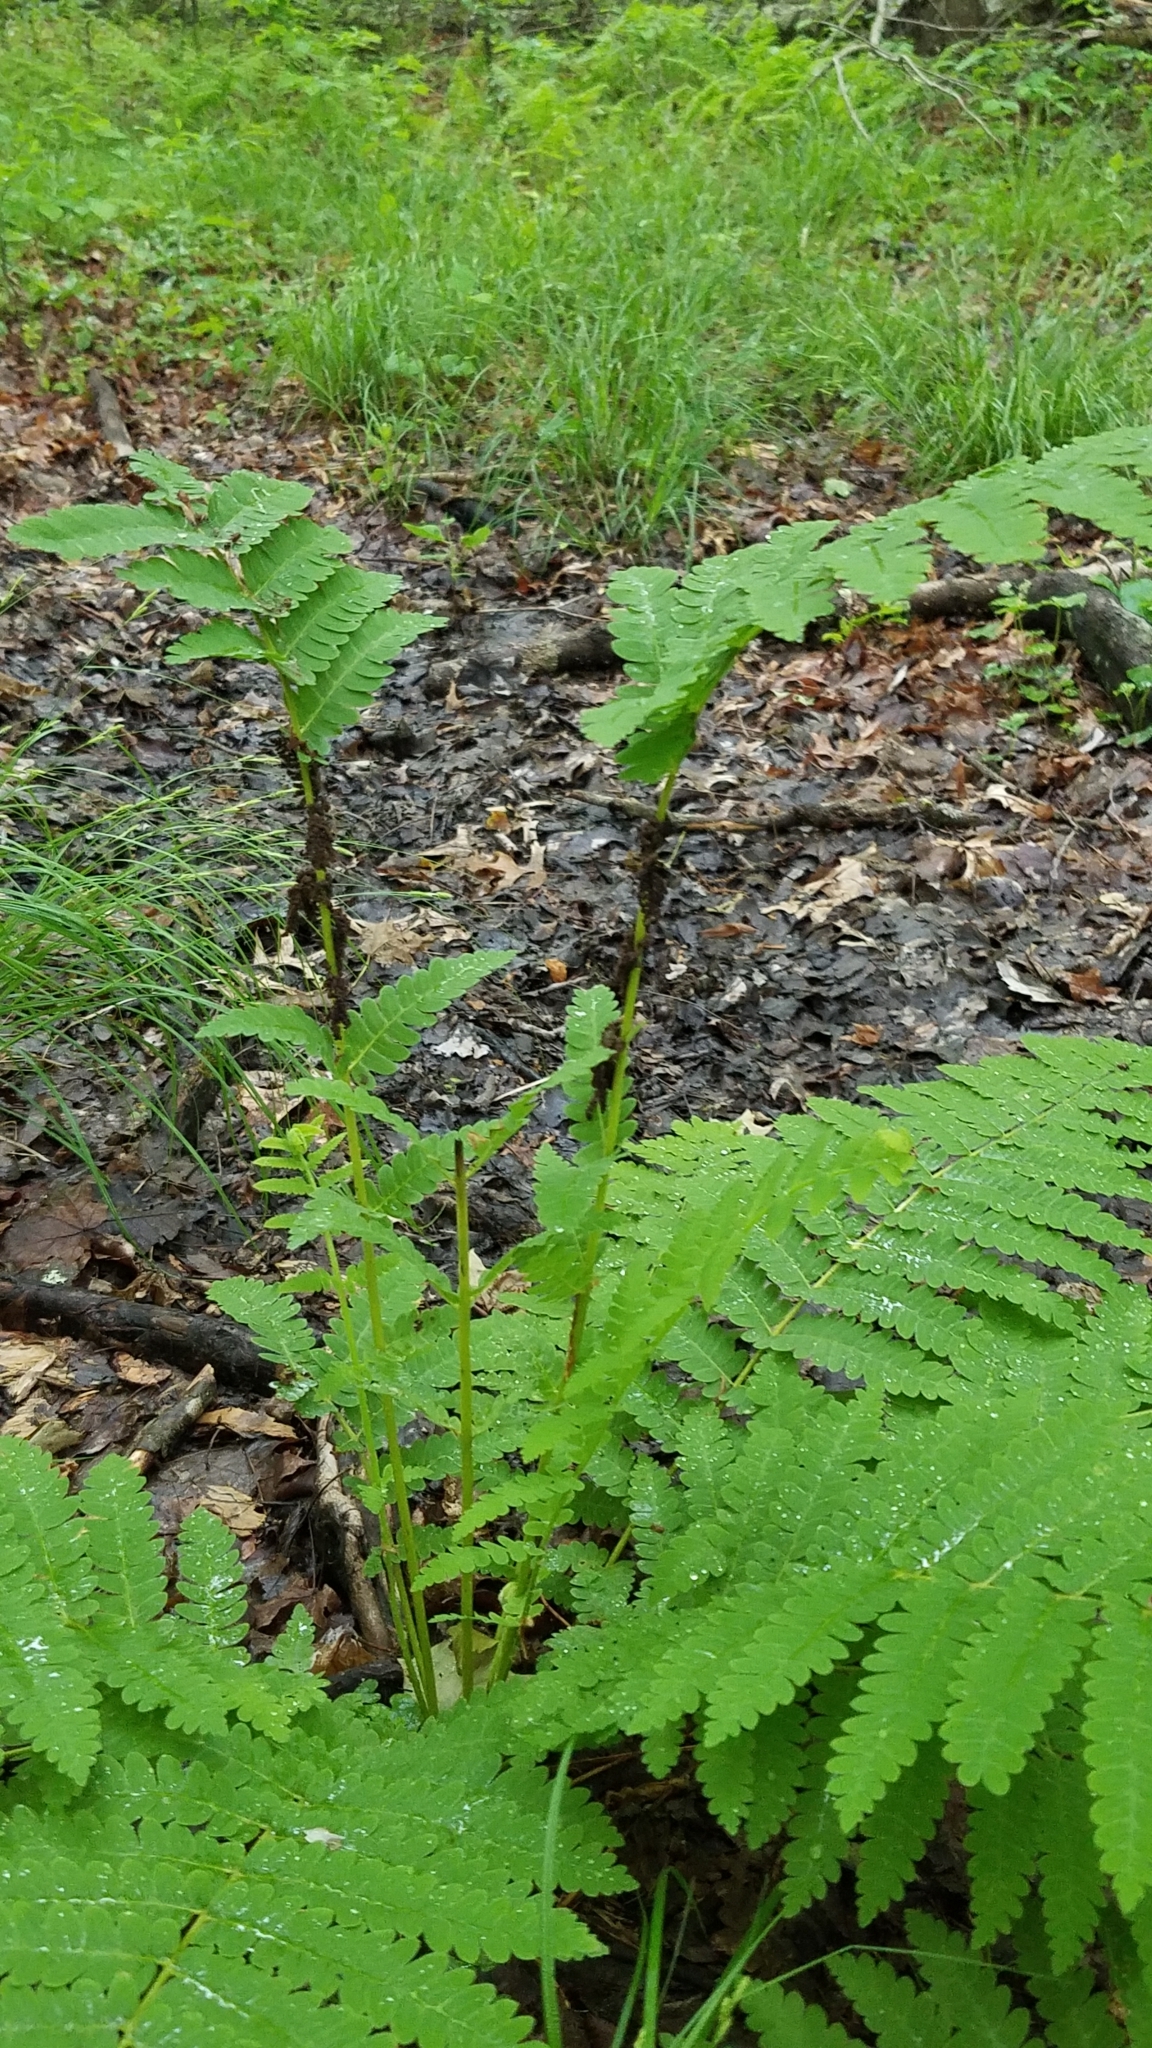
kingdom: Plantae
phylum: Tracheophyta
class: Polypodiopsida
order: Osmundales
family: Osmundaceae
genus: Claytosmunda
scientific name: Claytosmunda claytoniana
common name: Clayton's fern
